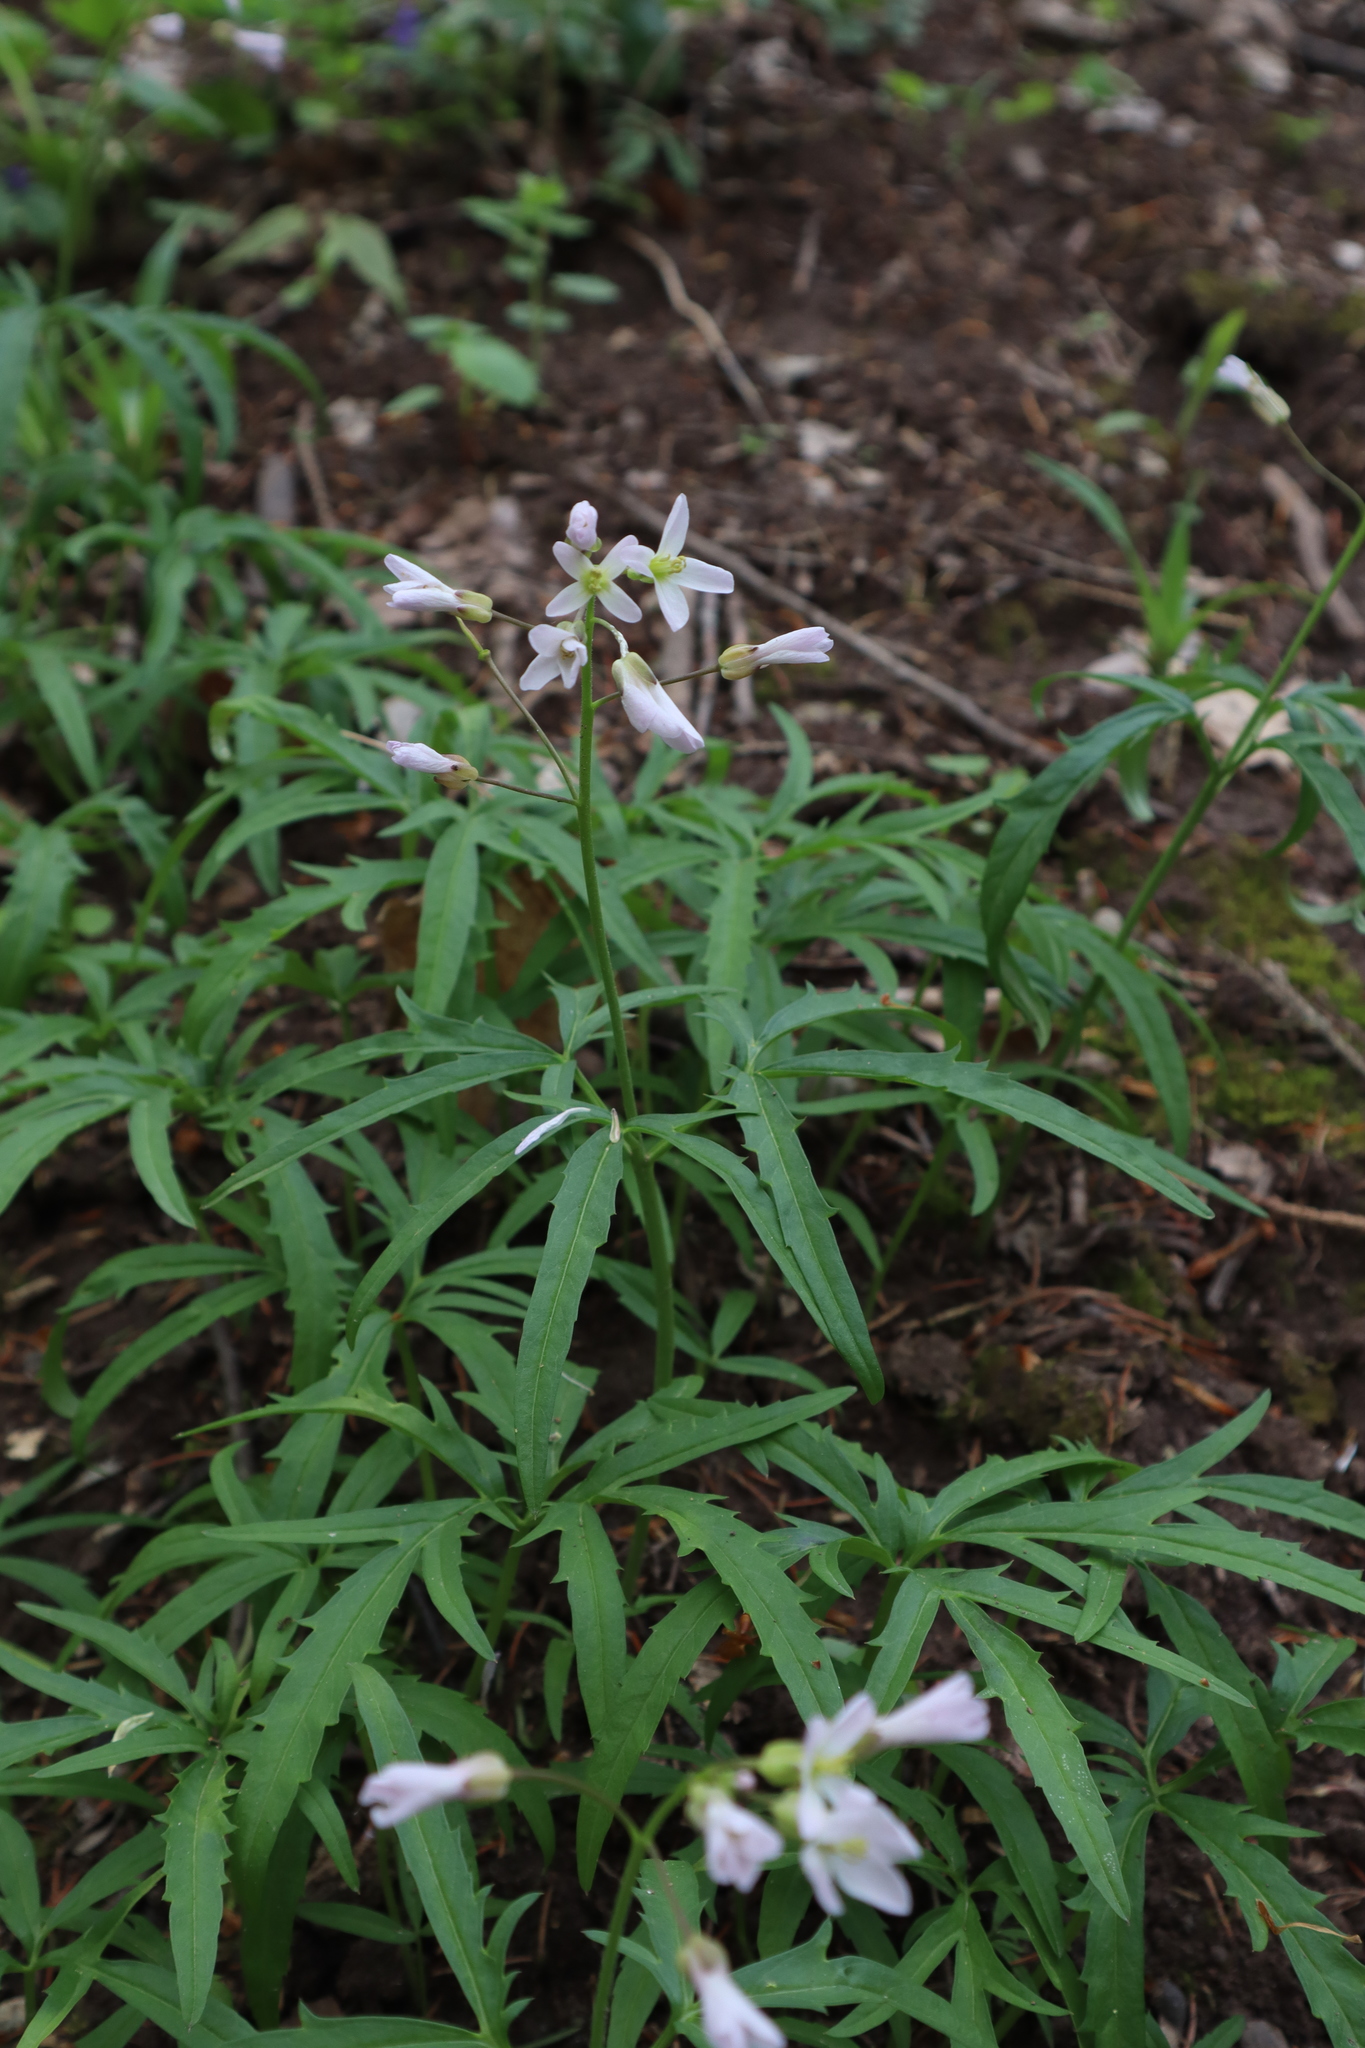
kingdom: Plantae
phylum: Tracheophyta
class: Magnoliopsida
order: Brassicales
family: Brassicaceae
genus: Cardamine
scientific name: Cardamine concatenata
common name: Cut-leaf toothcup
